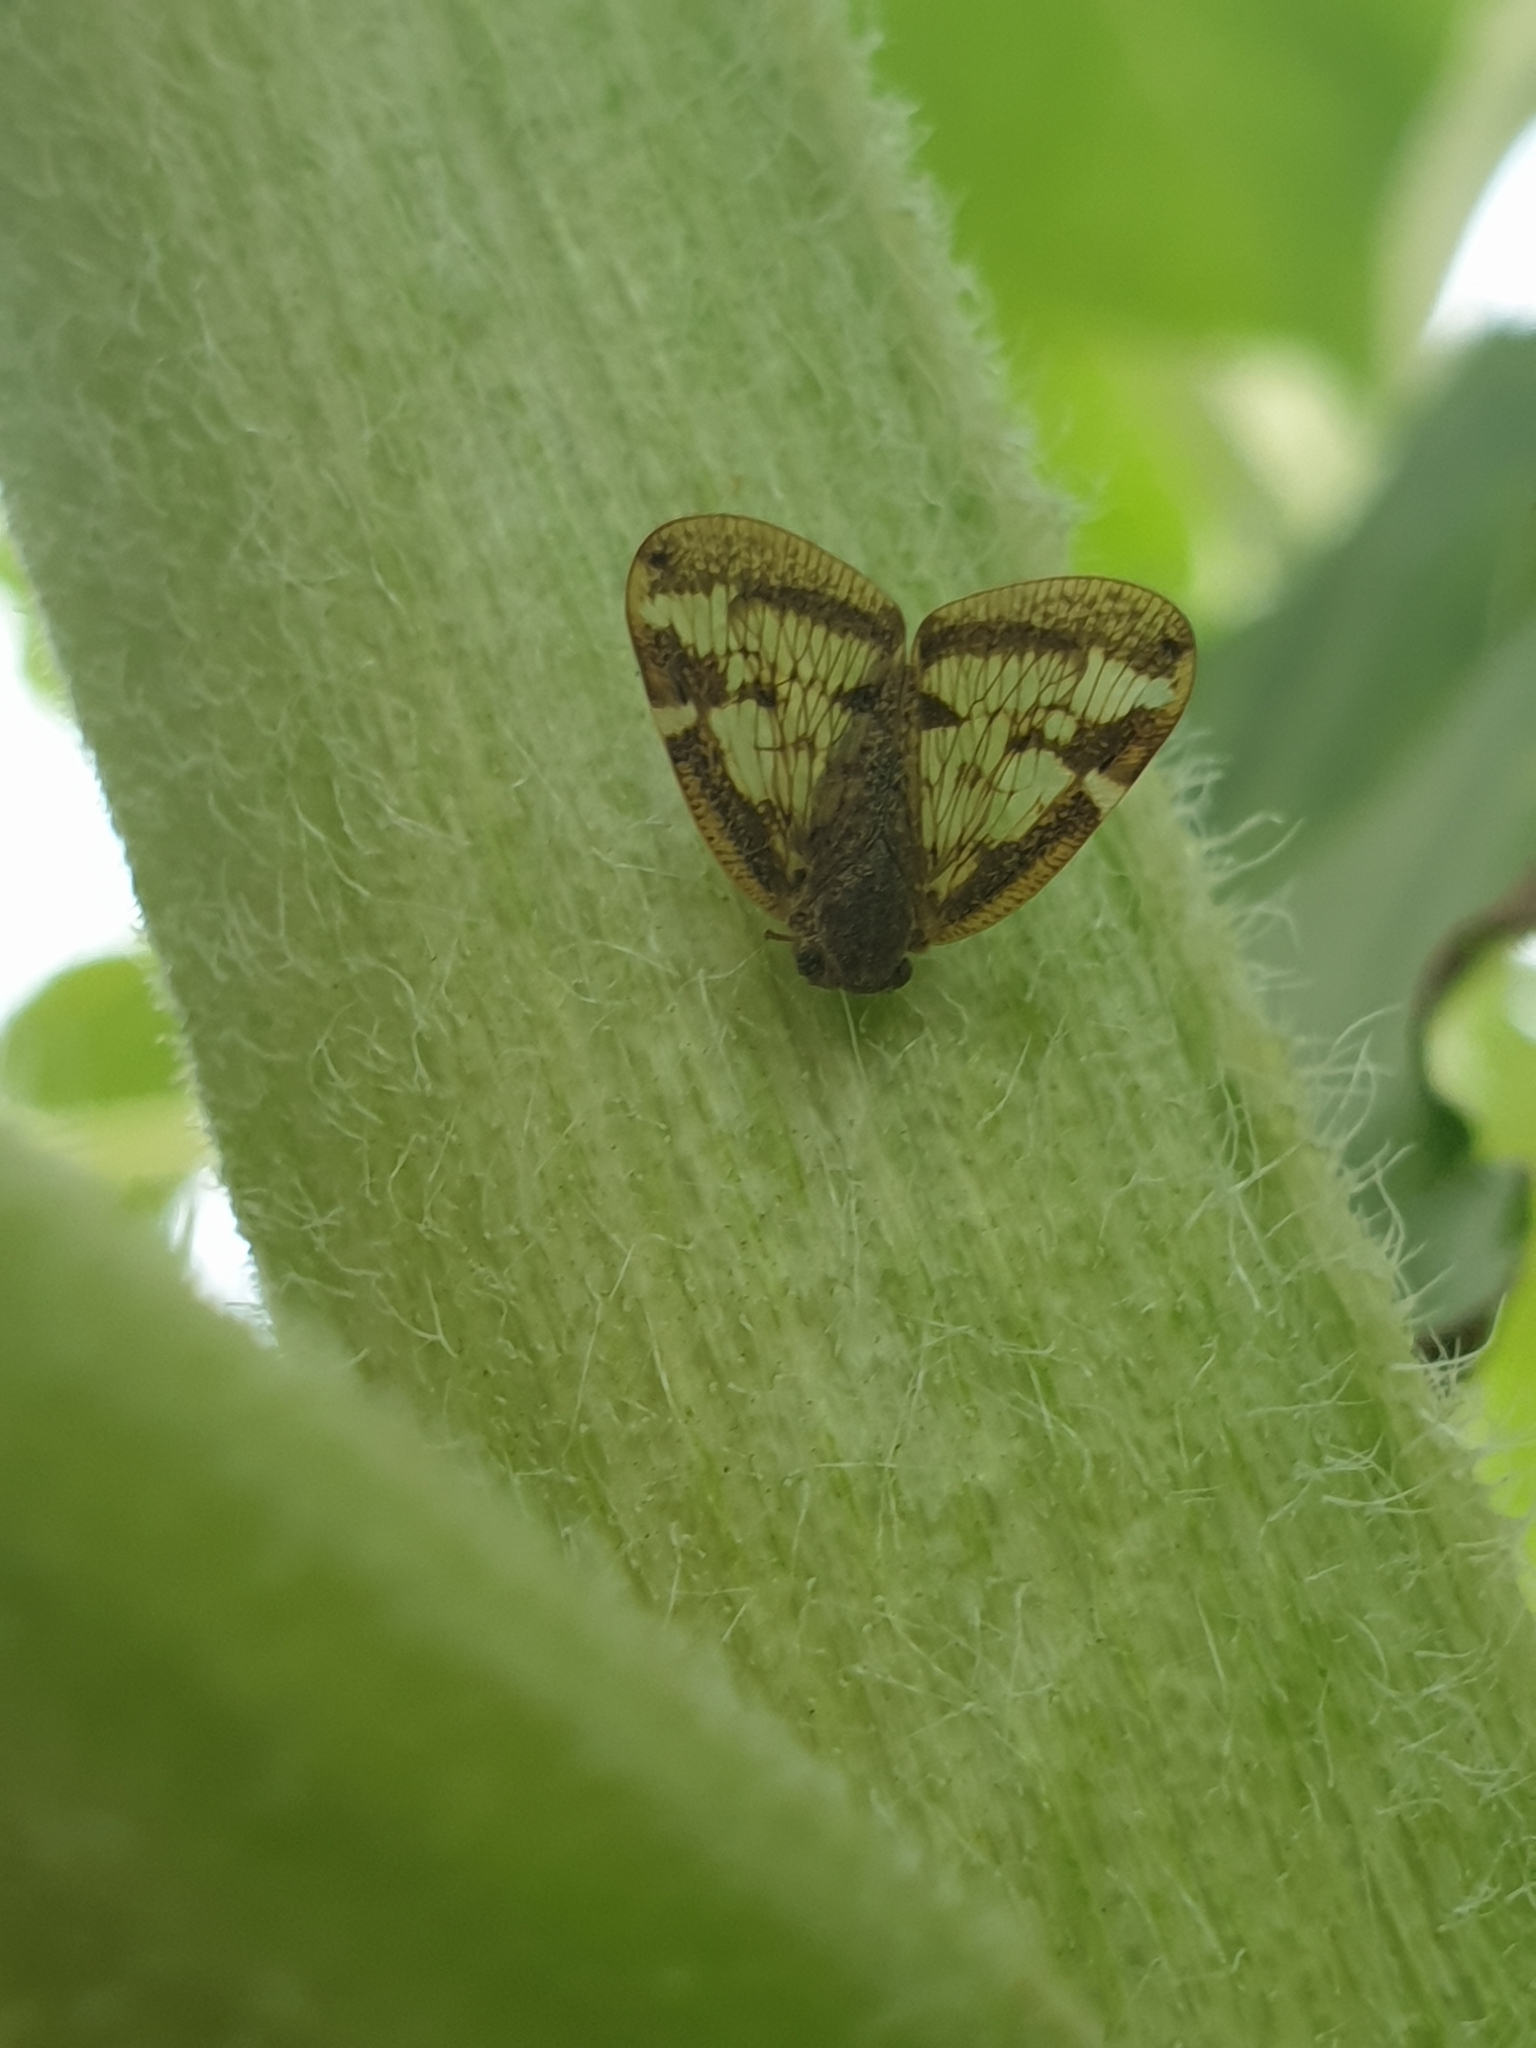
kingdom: Animalia
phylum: Arthropoda
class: Insecta
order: Hemiptera
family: Ricaniidae
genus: Scolypopa
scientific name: Scolypopa australis
